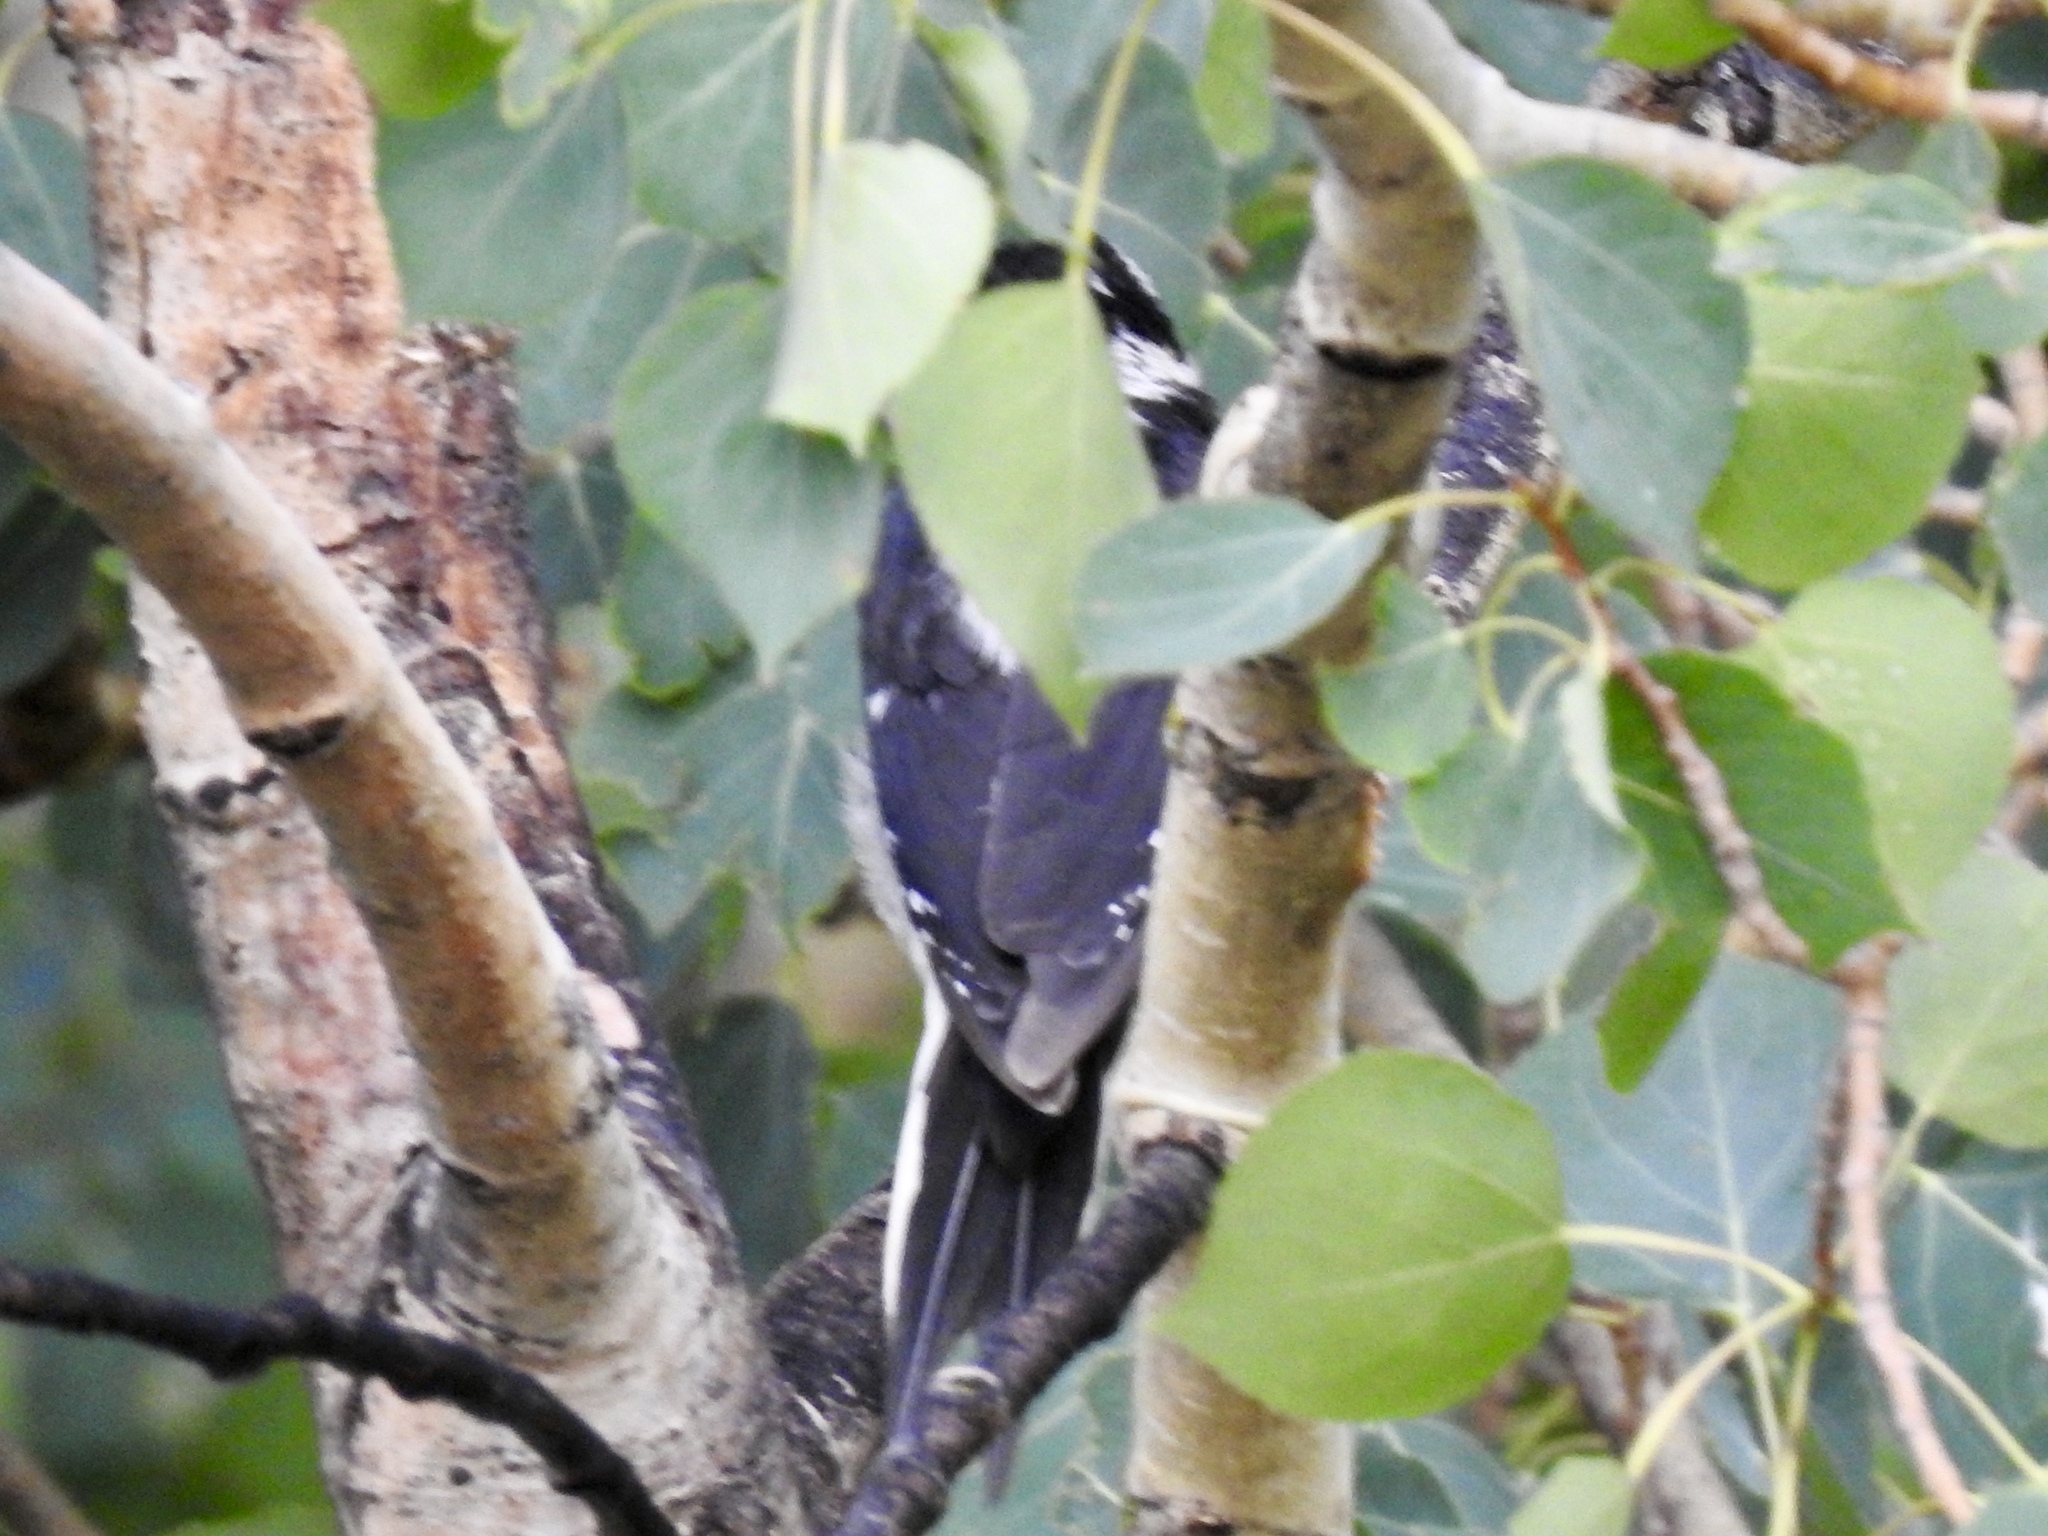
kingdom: Animalia
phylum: Chordata
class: Aves
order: Piciformes
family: Picidae
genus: Leuconotopicus
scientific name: Leuconotopicus villosus
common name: Hairy woodpecker
